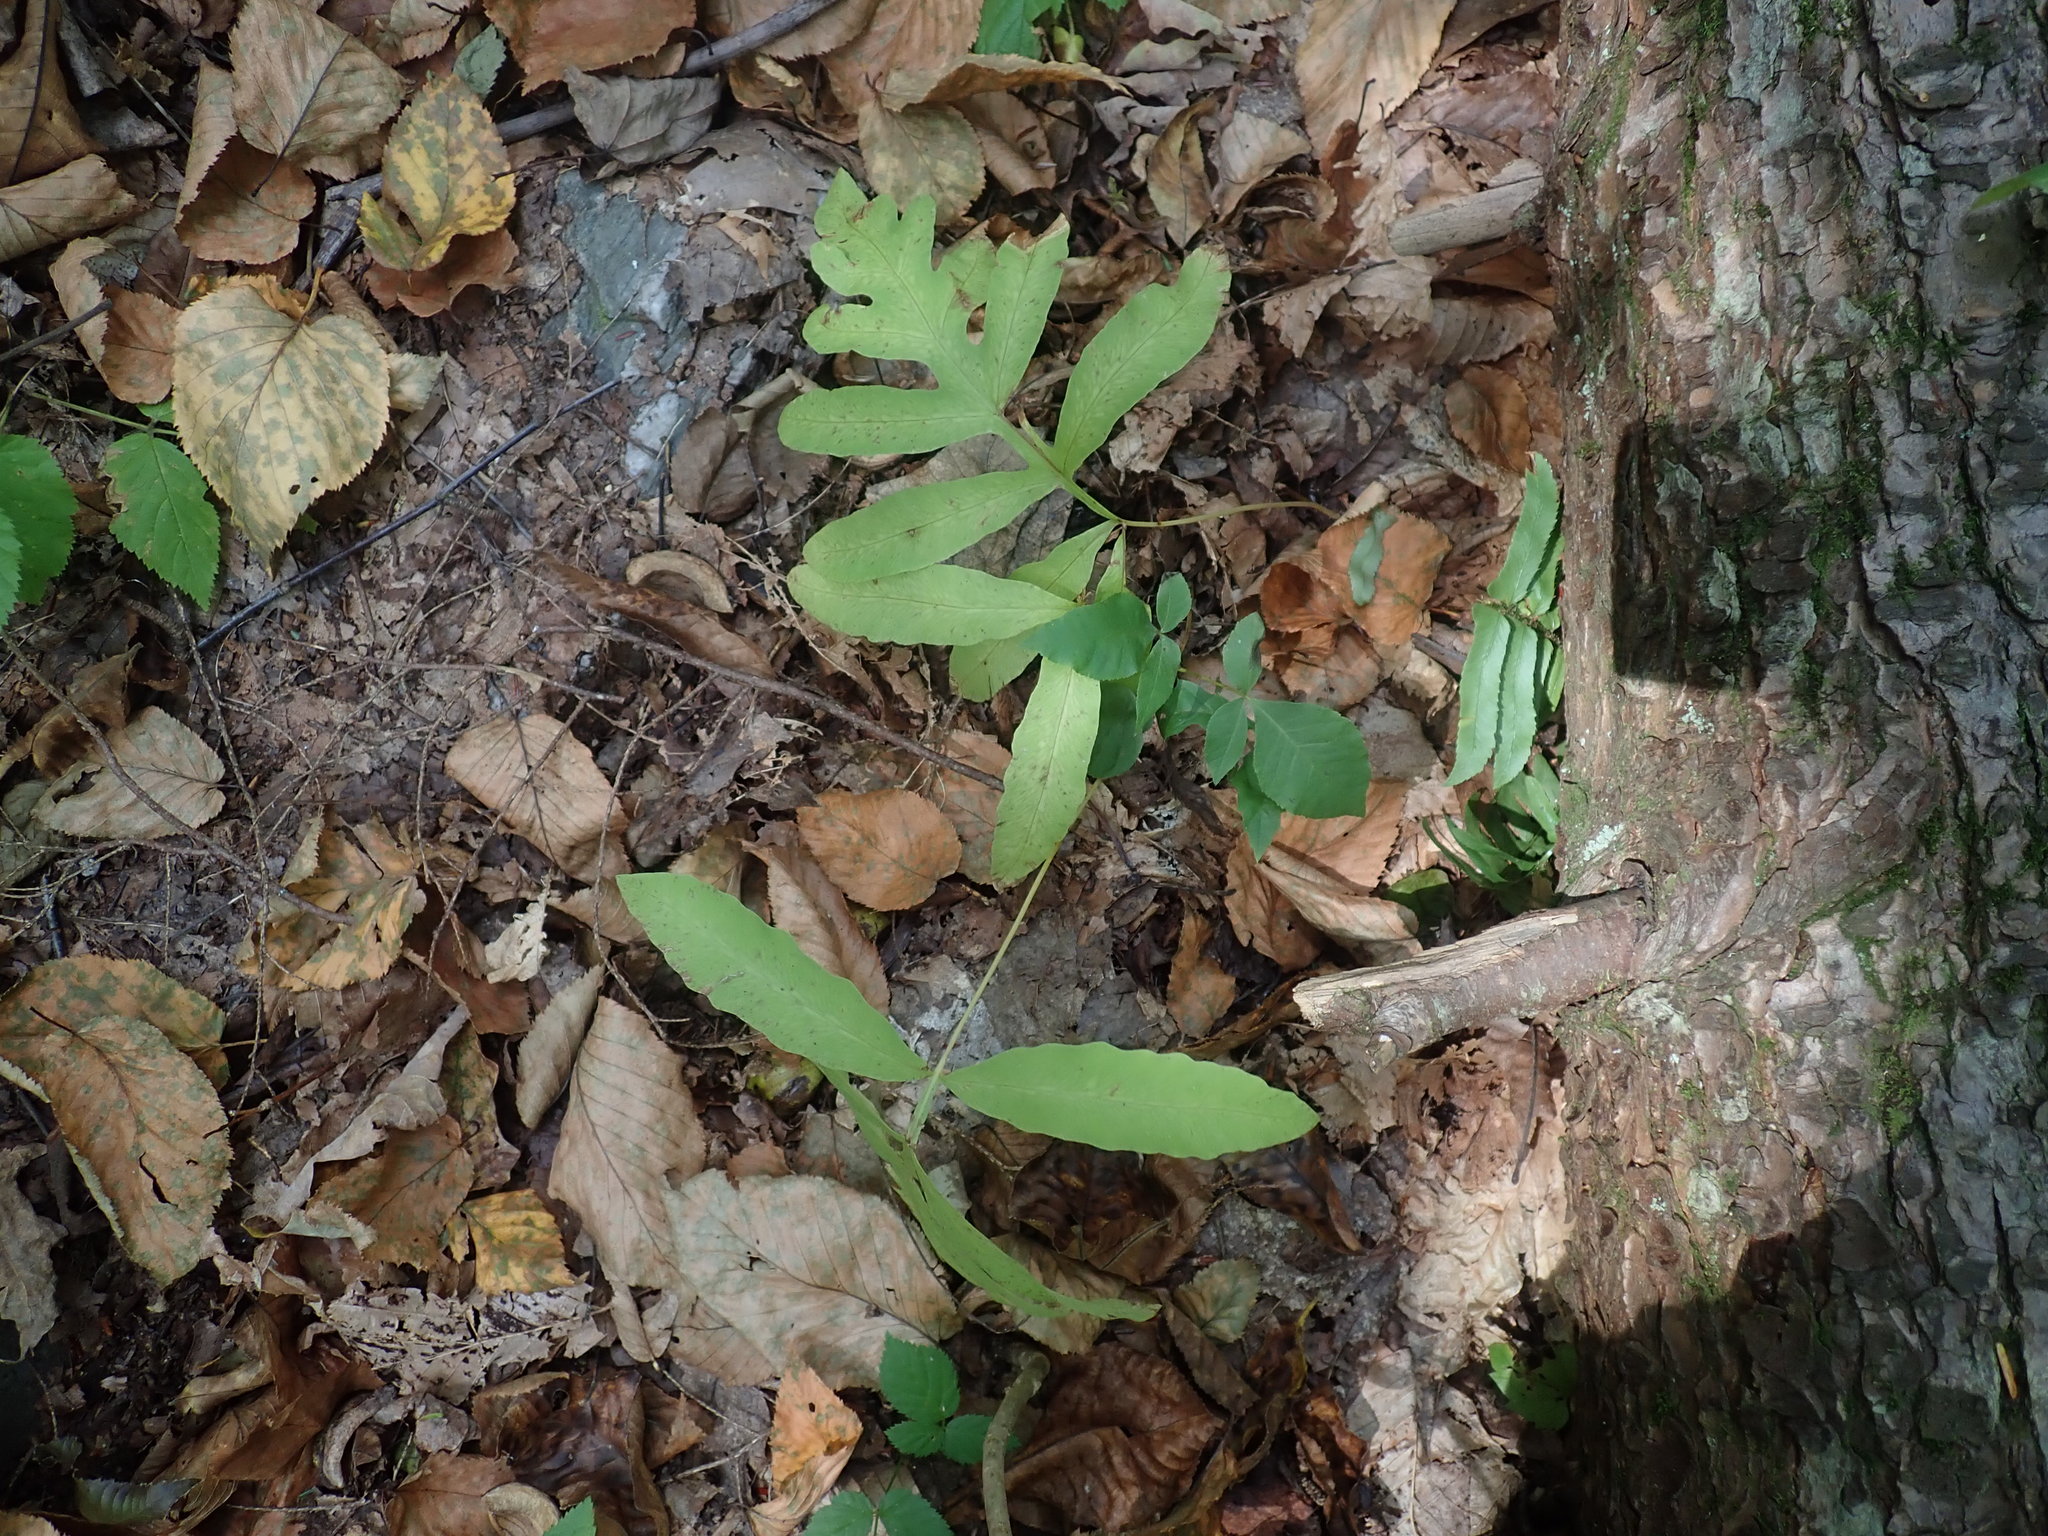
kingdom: Plantae
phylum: Tracheophyta
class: Polypodiopsida
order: Polypodiales
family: Onocleaceae
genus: Onoclea
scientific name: Onoclea sensibilis
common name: Sensitive fern
